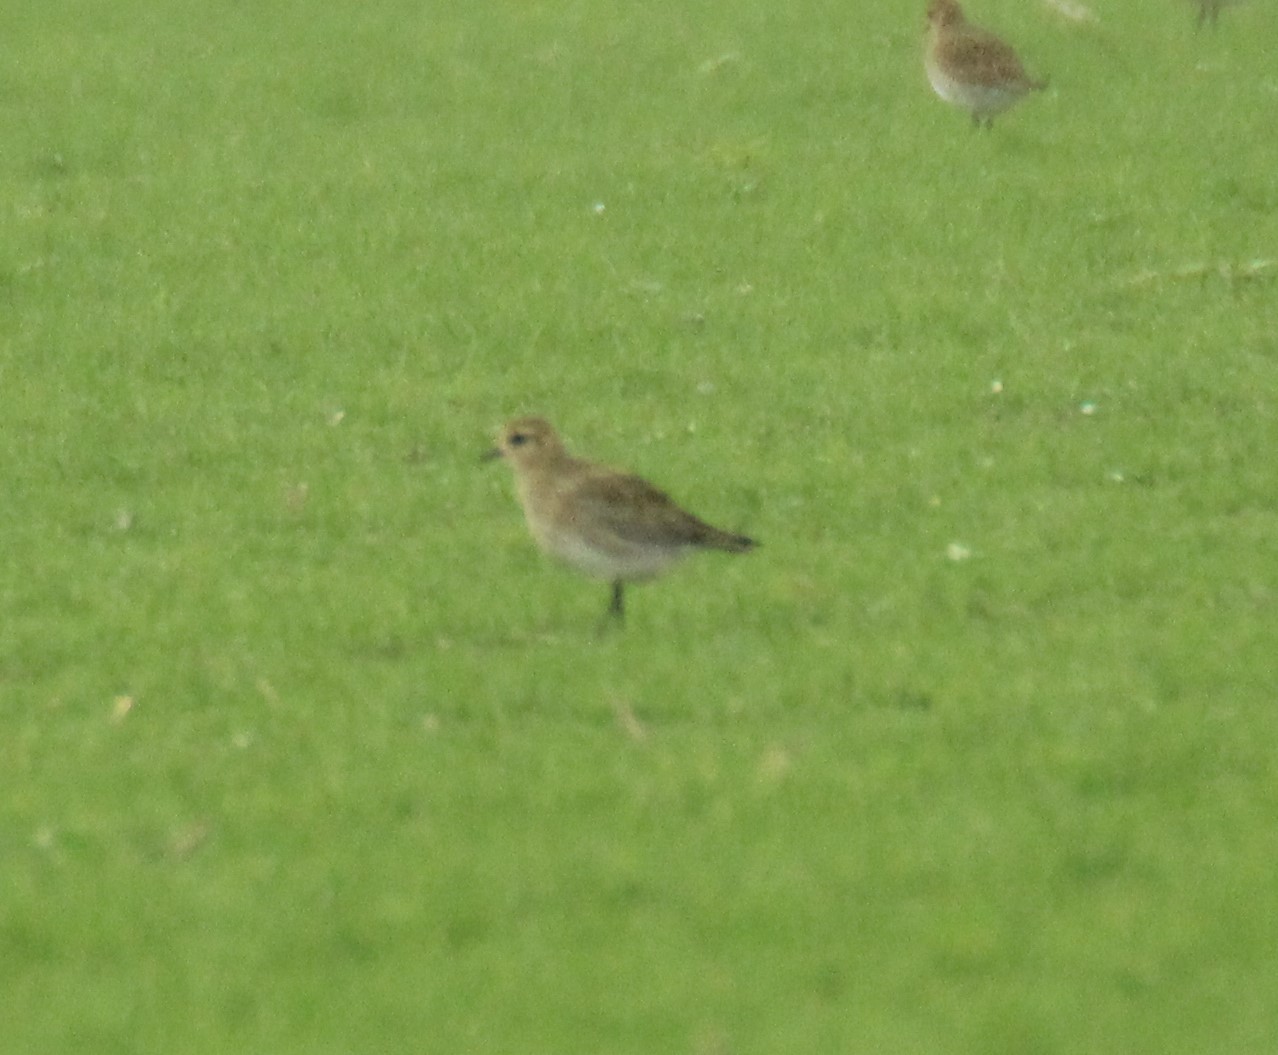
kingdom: Animalia
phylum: Chordata
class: Aves
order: Charadriiformes
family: Charadriidae
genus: Pluvialis
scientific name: Pluvialis apricaria
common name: European golden plover
